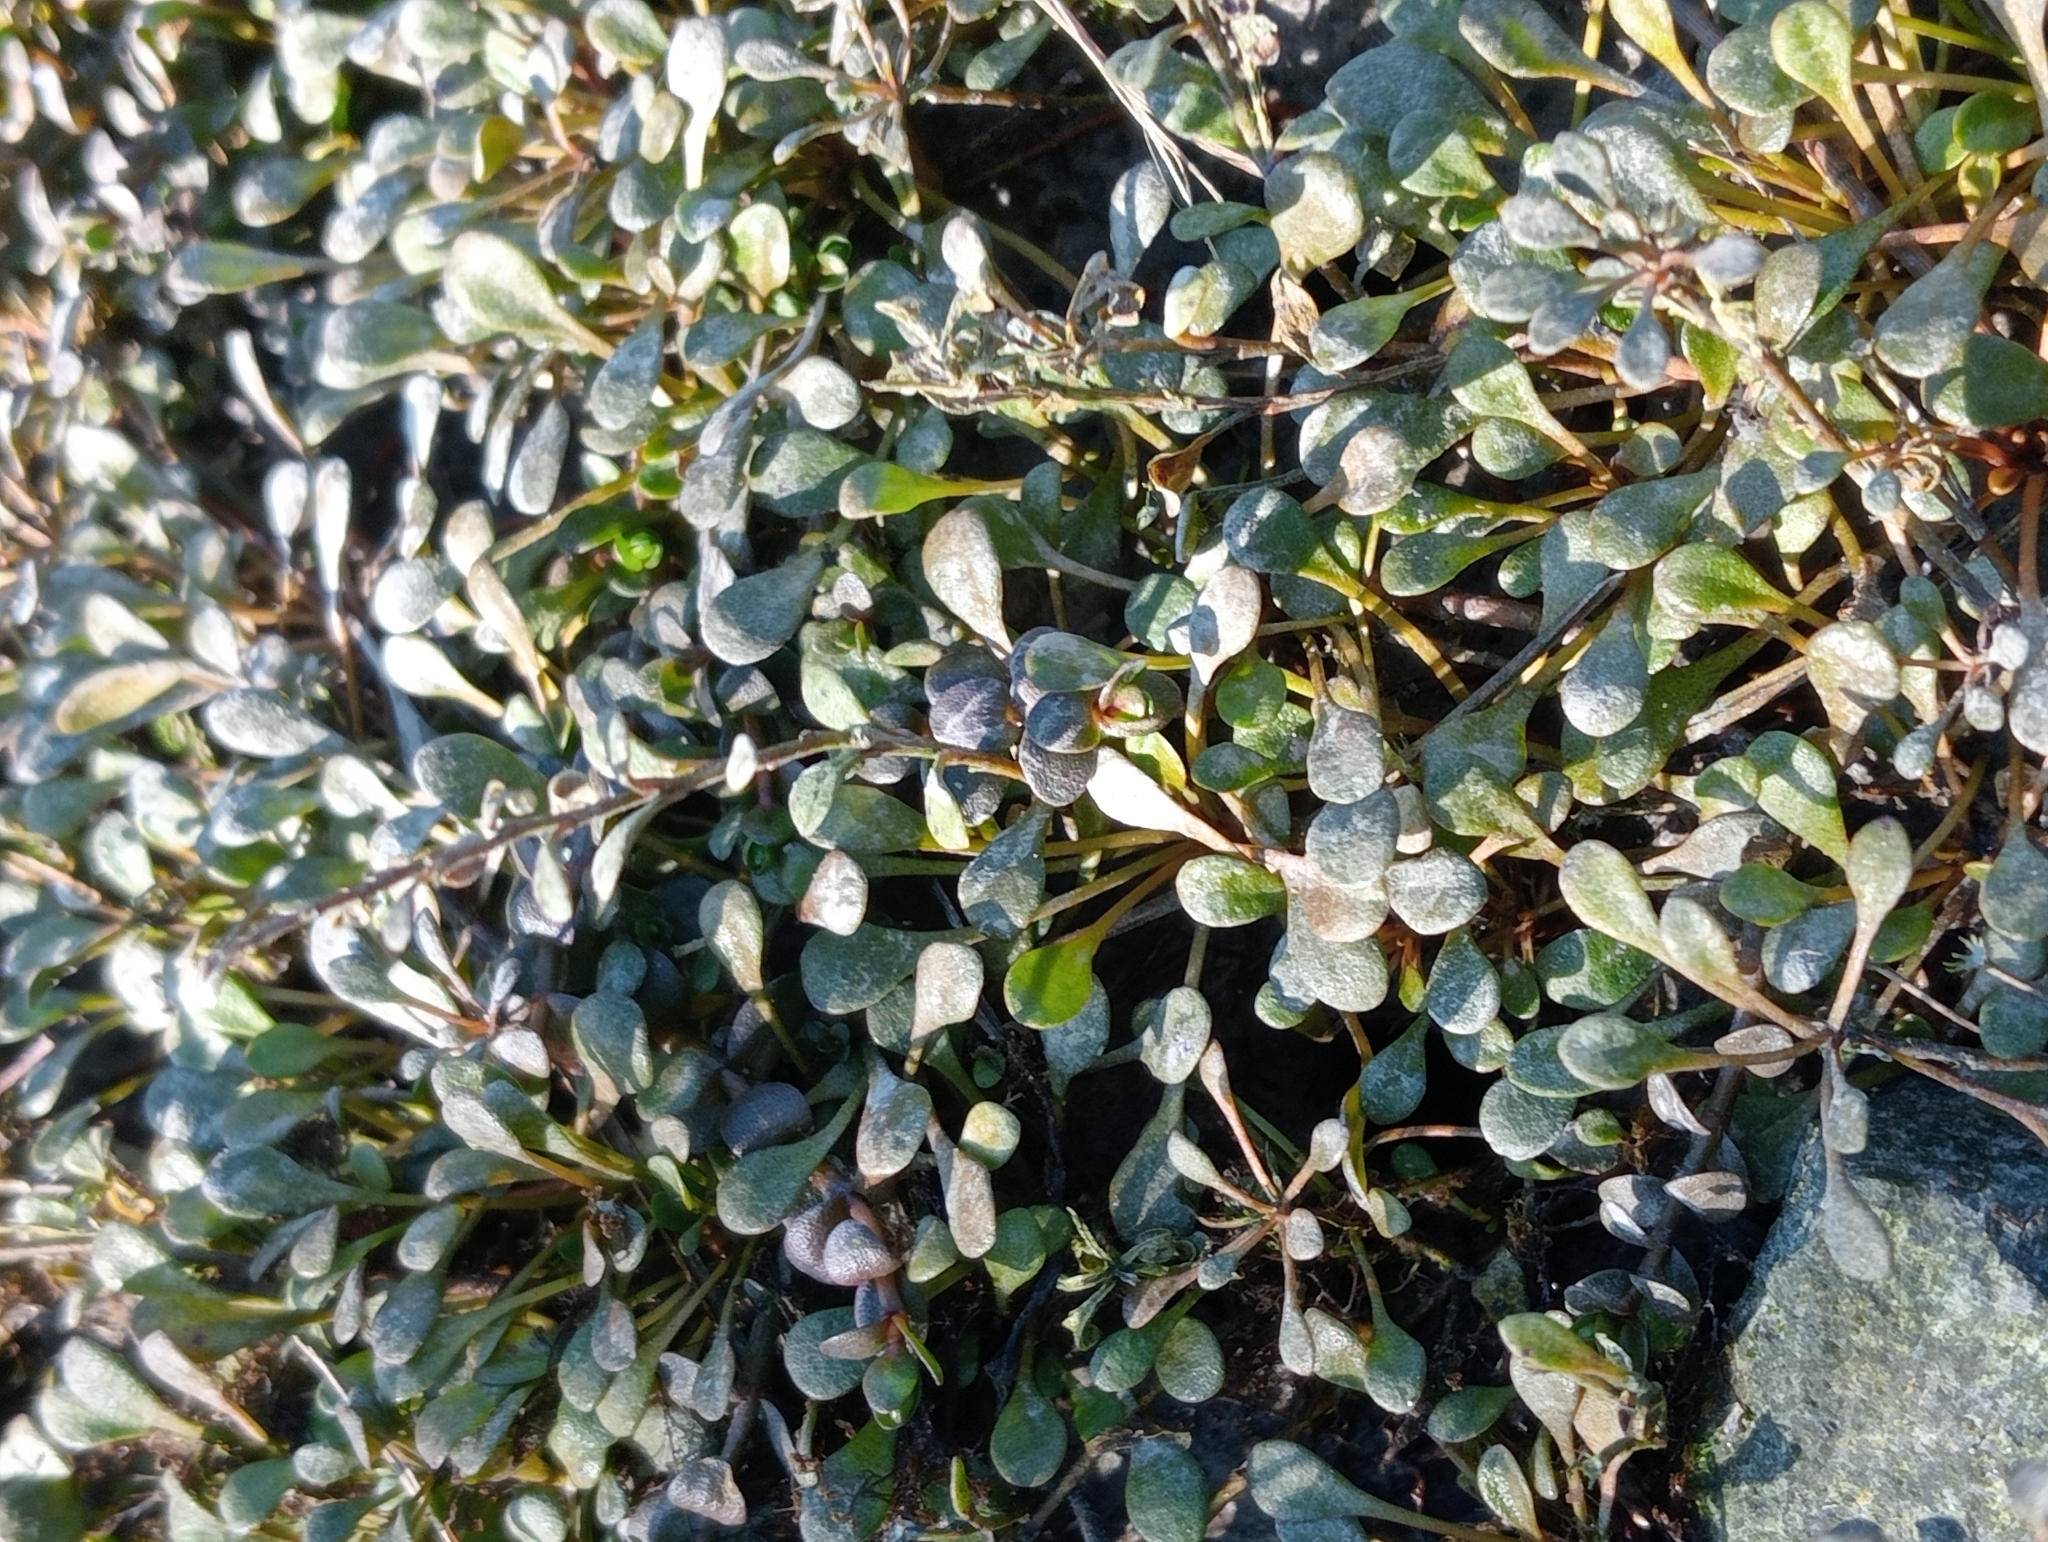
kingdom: Plantae
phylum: Tracheophyta
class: Magnoliopsida
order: Ericales
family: Primulaceae
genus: Samolus
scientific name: Samolus repens
